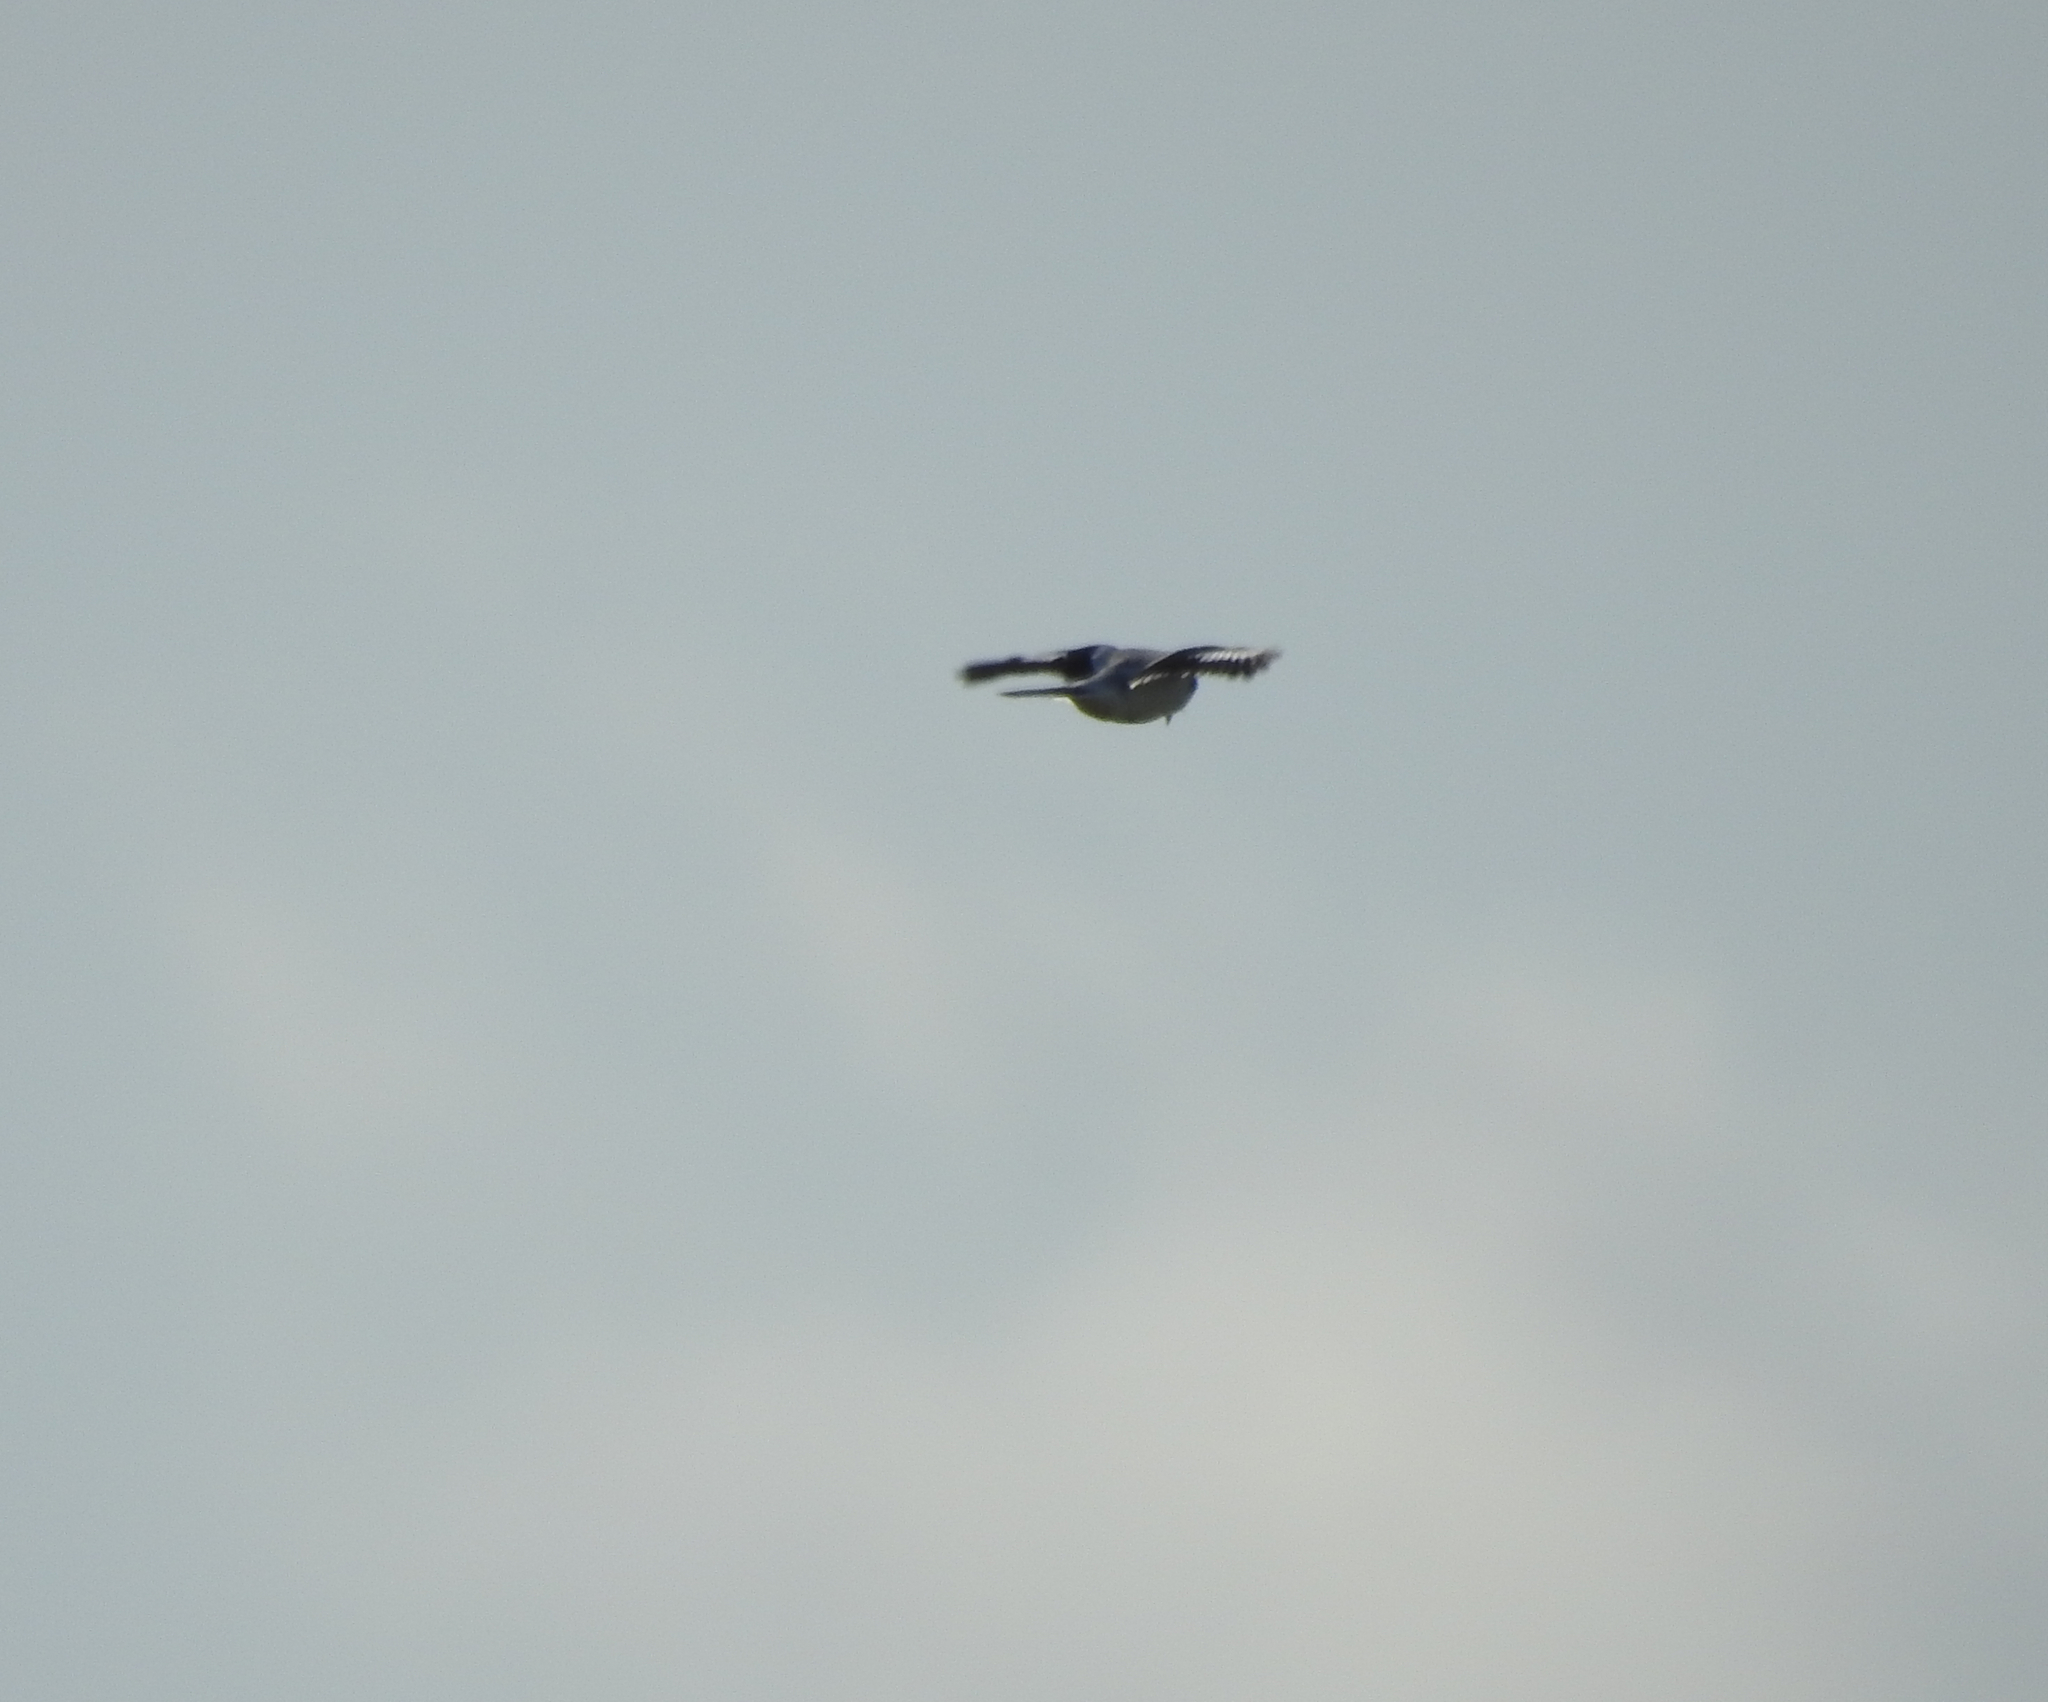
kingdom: Animalia
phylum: Chordata
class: Aves
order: Passeriformes
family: Laniidae
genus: Lanius
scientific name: Lanius excubitor
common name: Great grey shrike
